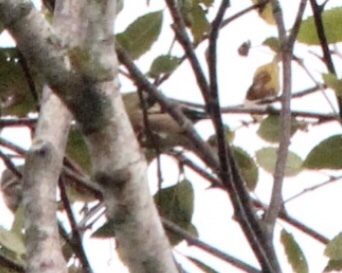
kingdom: Animalia
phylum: Chordata
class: Aves
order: Passeriformes
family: Fringillidae
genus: Spinus
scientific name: Spinus tristis
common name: American goldfinch
